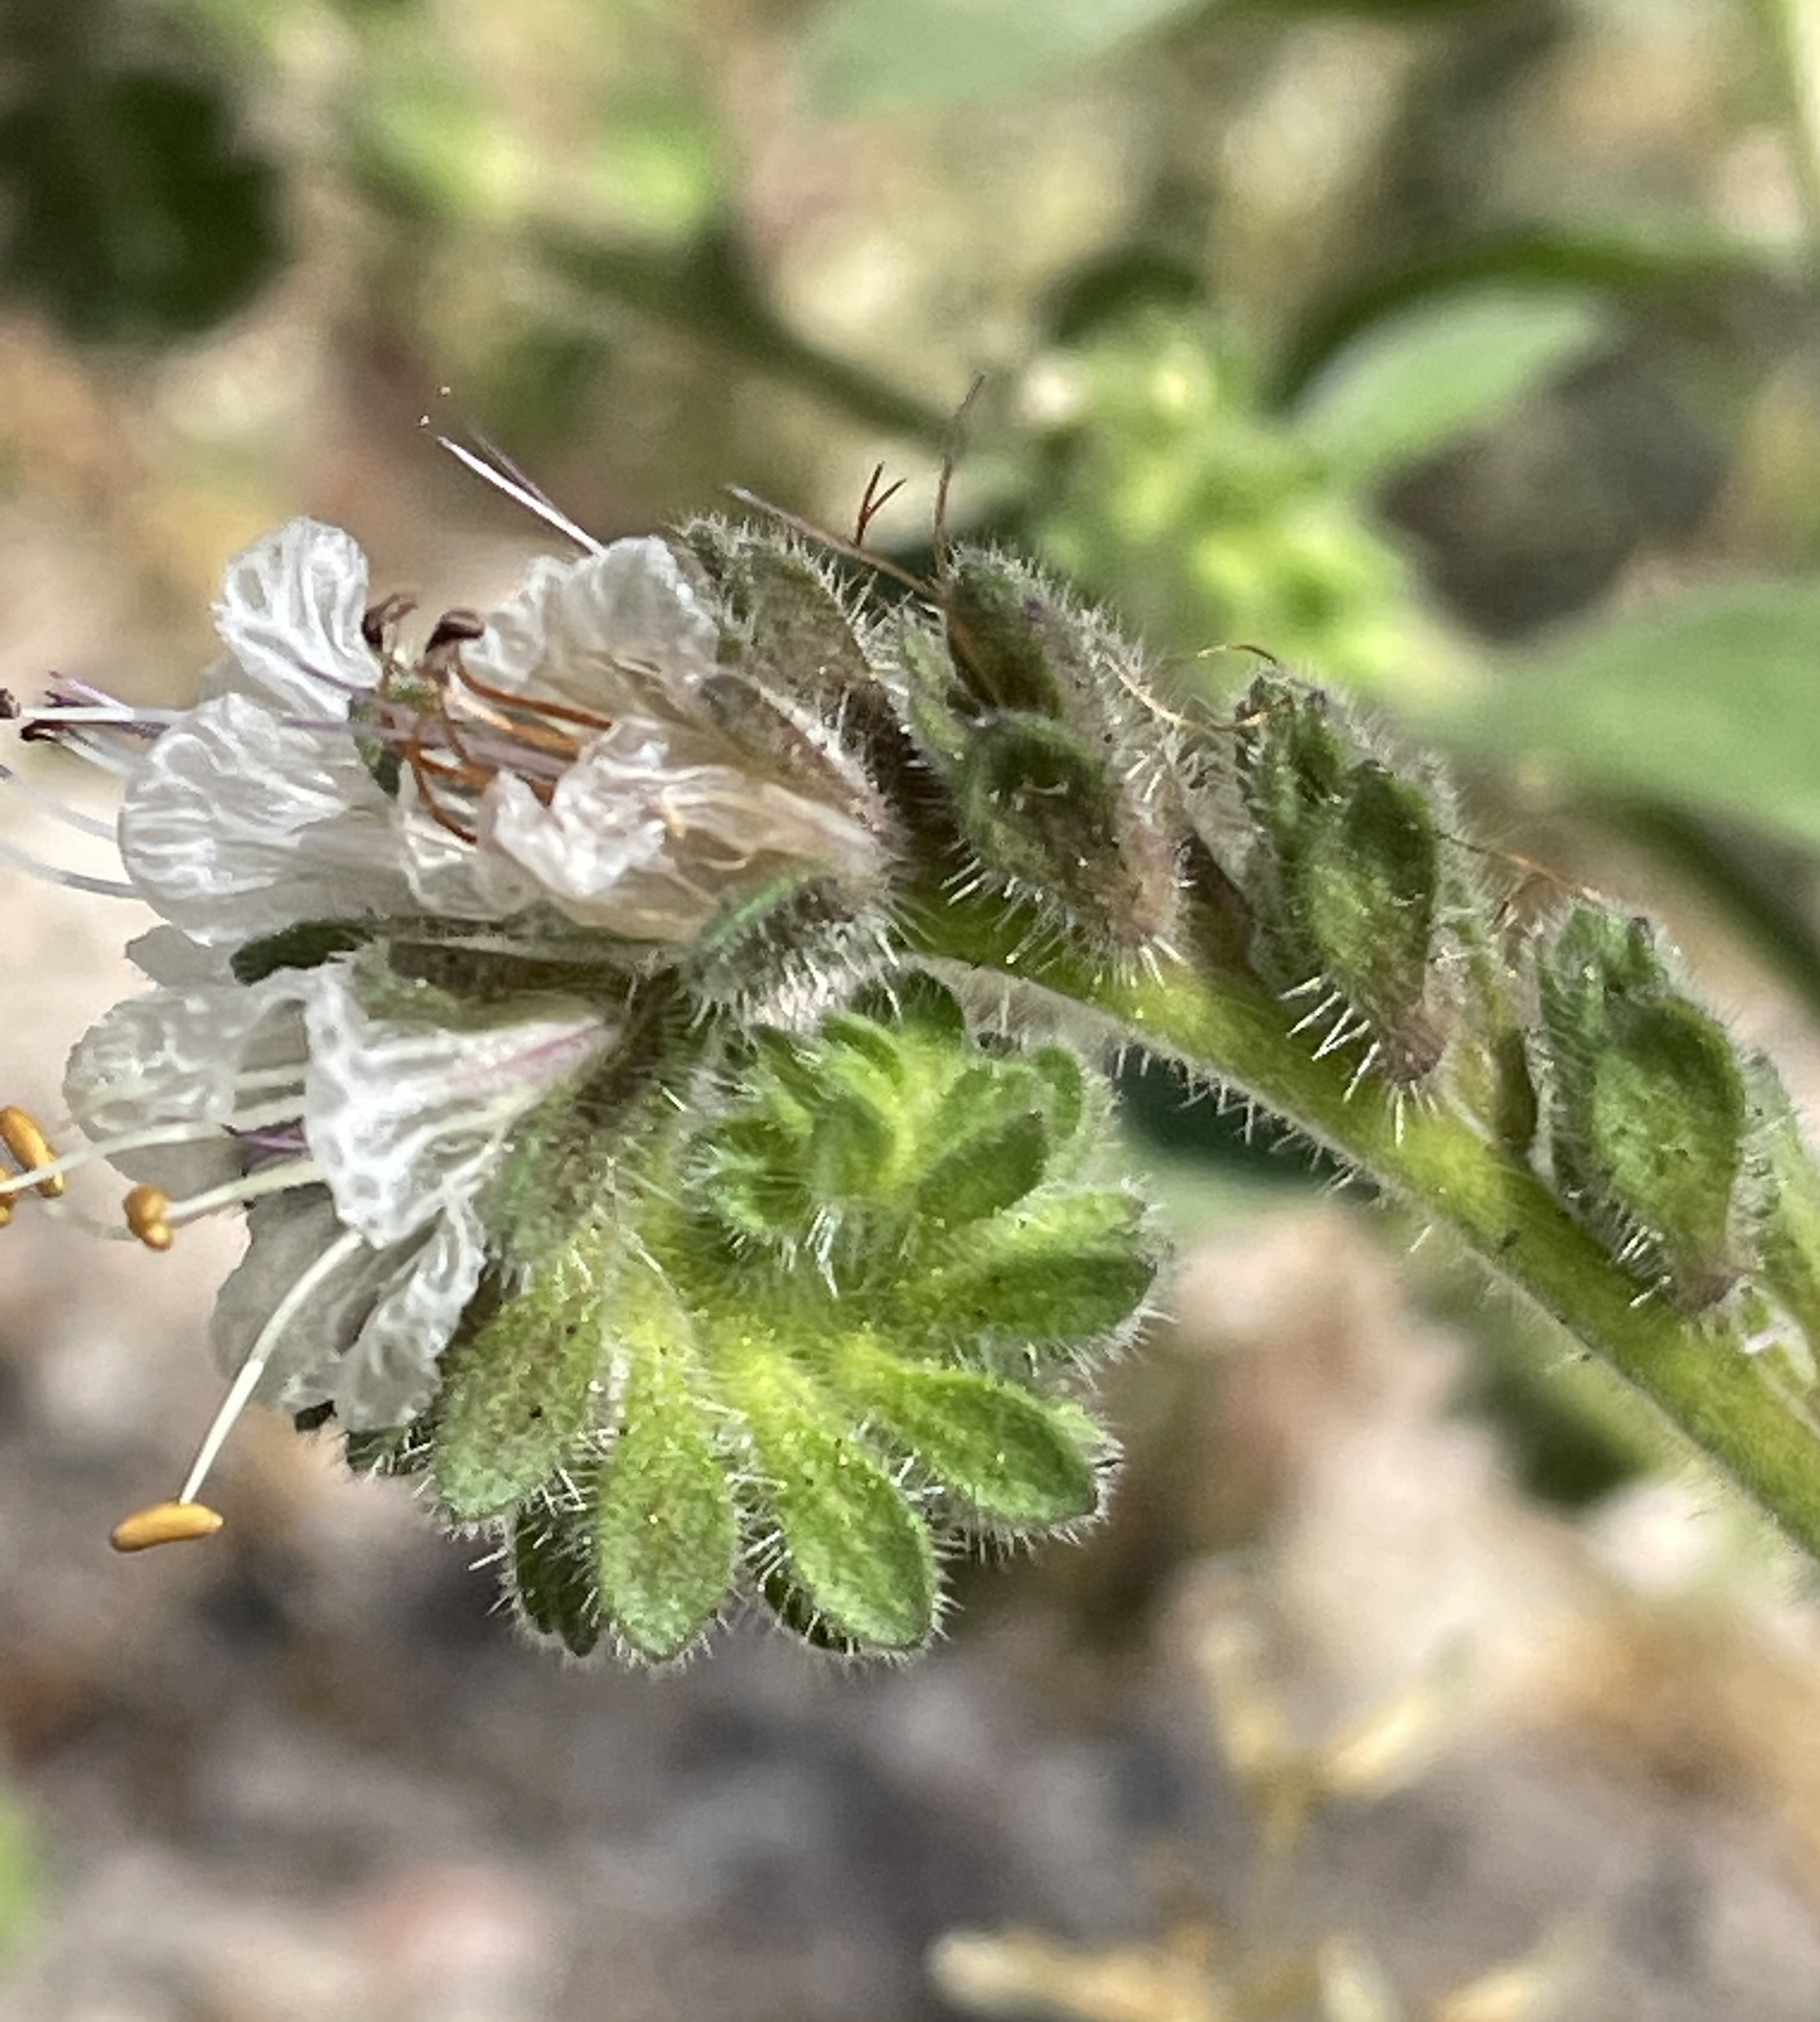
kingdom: Plantae
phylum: Tracheophyta
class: Magnoliopsida
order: Boraginales
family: Hydrophyllaceae
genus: Phacelia
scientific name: Phacelia grisea
